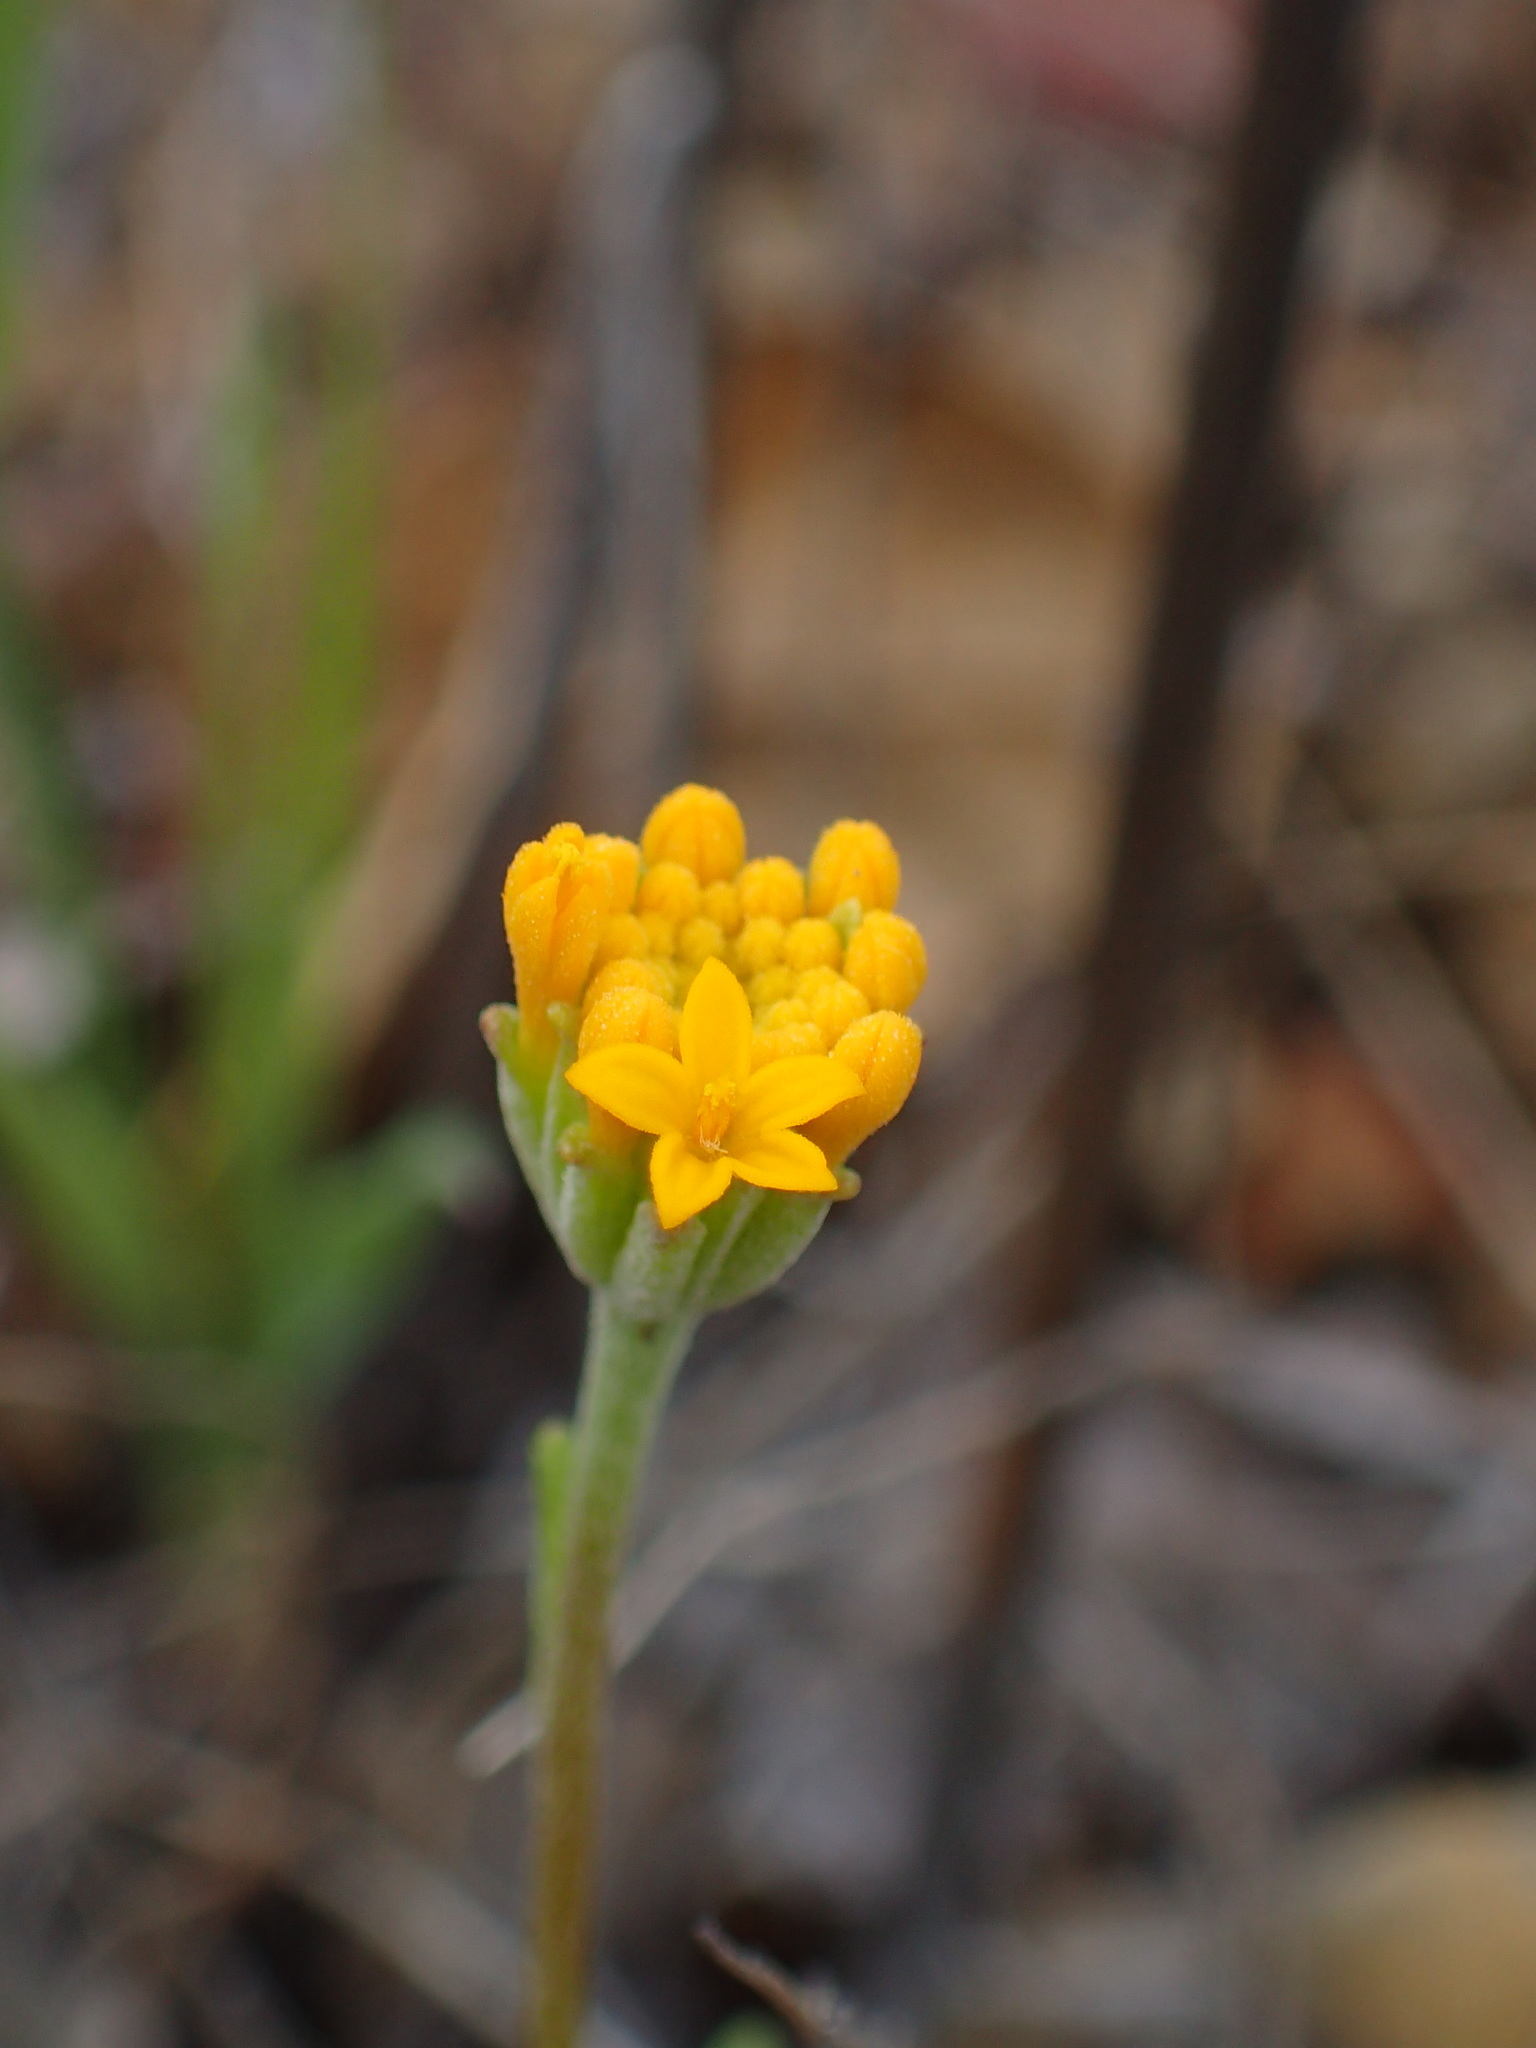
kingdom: Plantae
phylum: Tracheophyta
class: Magnoliopsida
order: Asterales
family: Asteraceae
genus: Chaenactis
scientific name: Chaenactis glabriuscula
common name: Yellow pincushion
